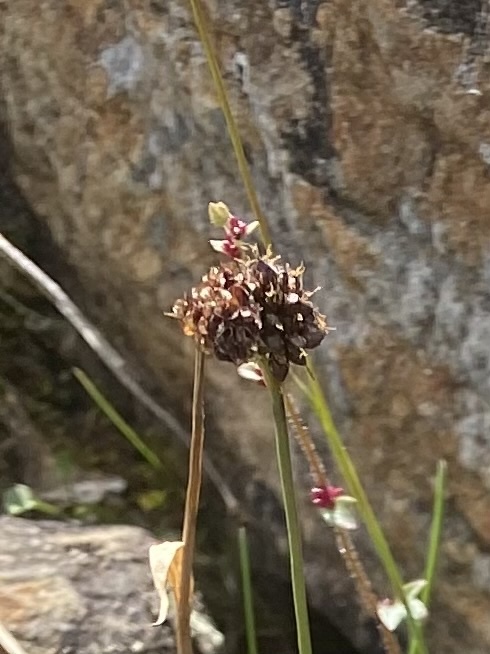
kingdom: Plantae
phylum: Tracheophyta
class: Liliopsida
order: Poales
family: Juncaceae
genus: Luzula
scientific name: Luzula nivalis
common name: Arctic woodrush
